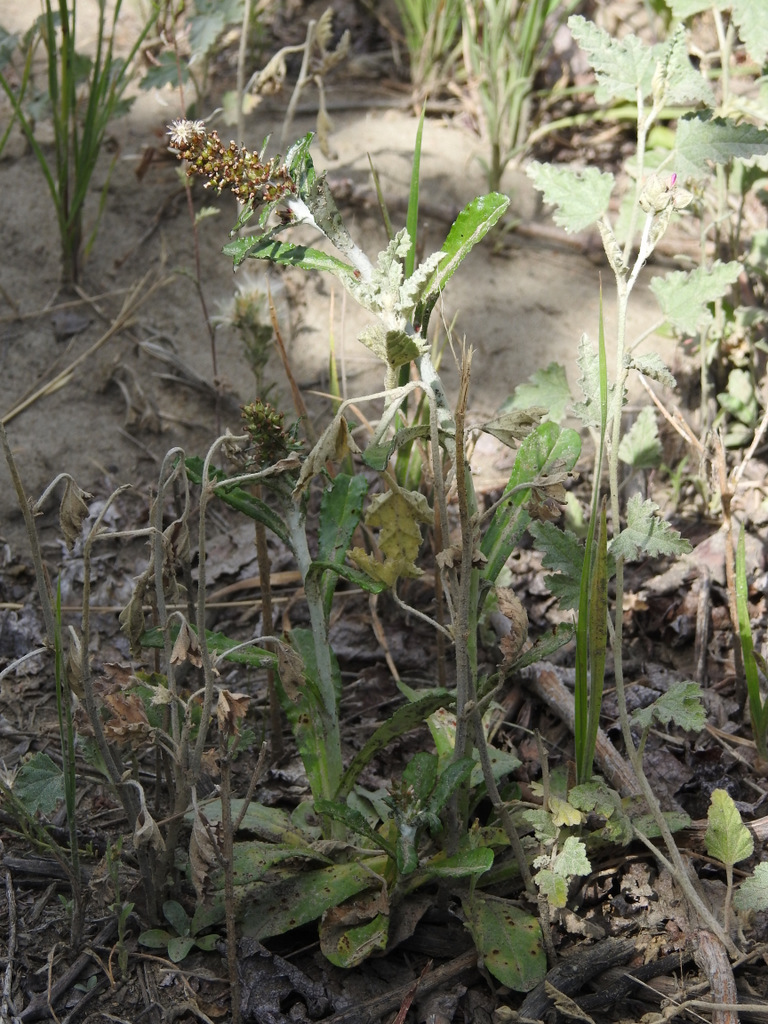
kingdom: Plantae
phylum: Tracheophyta
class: Magnoliopsida
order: Asterales
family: Asteraceae
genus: Gamochaeta
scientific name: Gamochaeta americana
